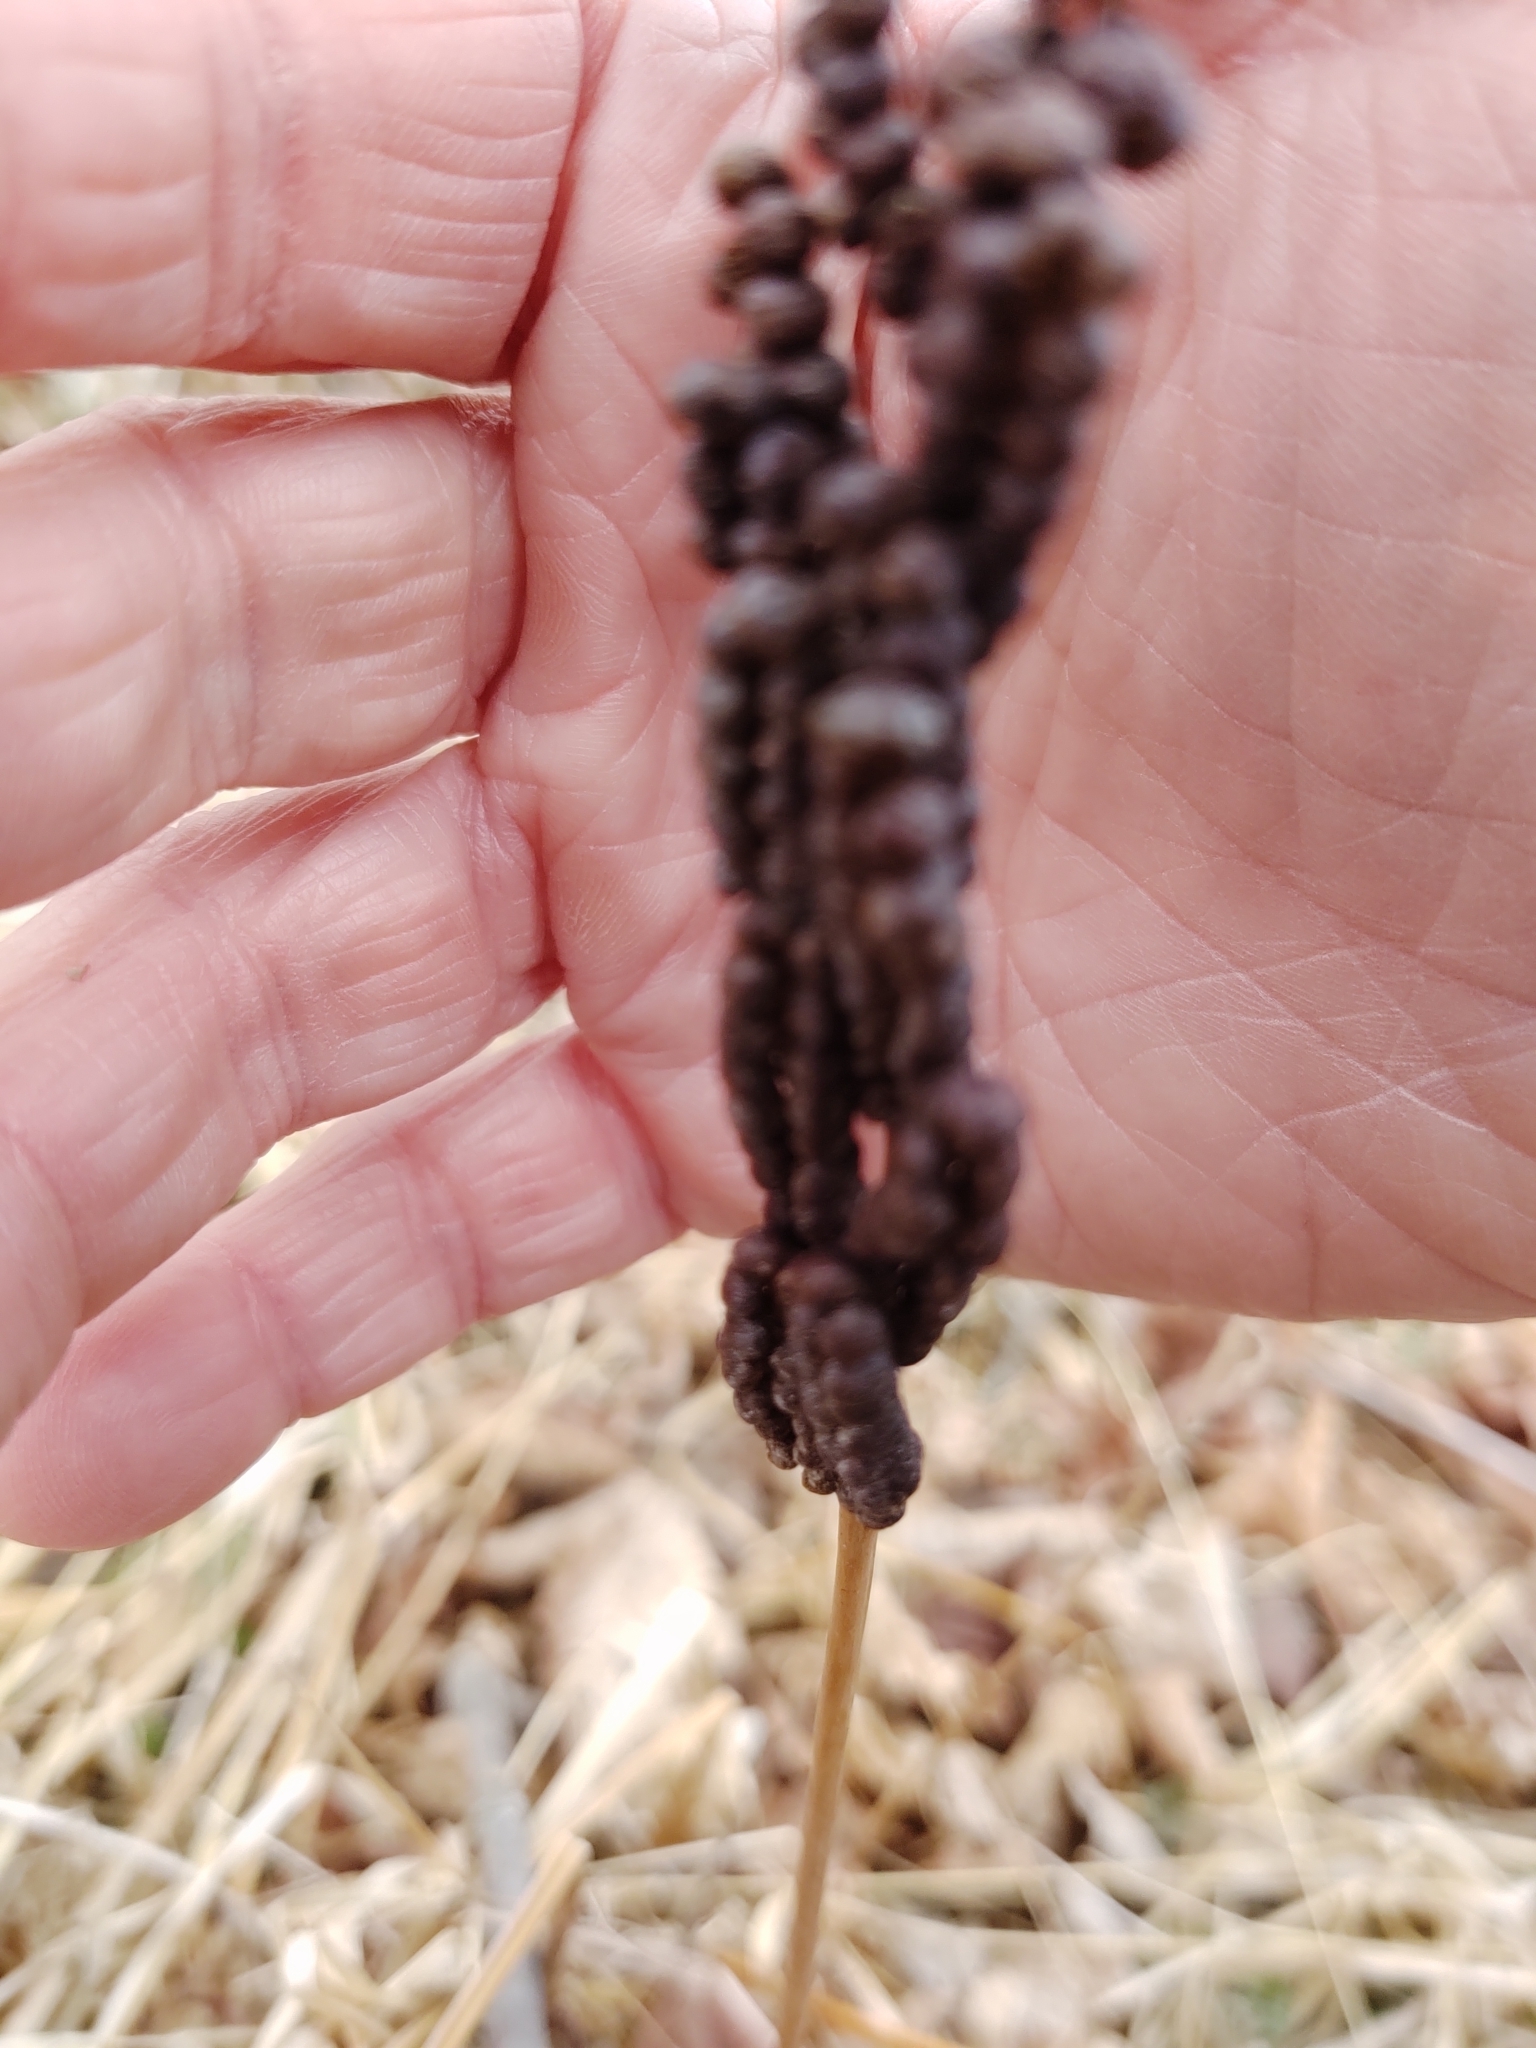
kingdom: Plantae
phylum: Tracheophyta
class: Polypodiopsida
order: Polypodiales
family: Onocleaceae
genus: Onoclea
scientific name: Onoclea sensibilis
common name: Sensitive fern
